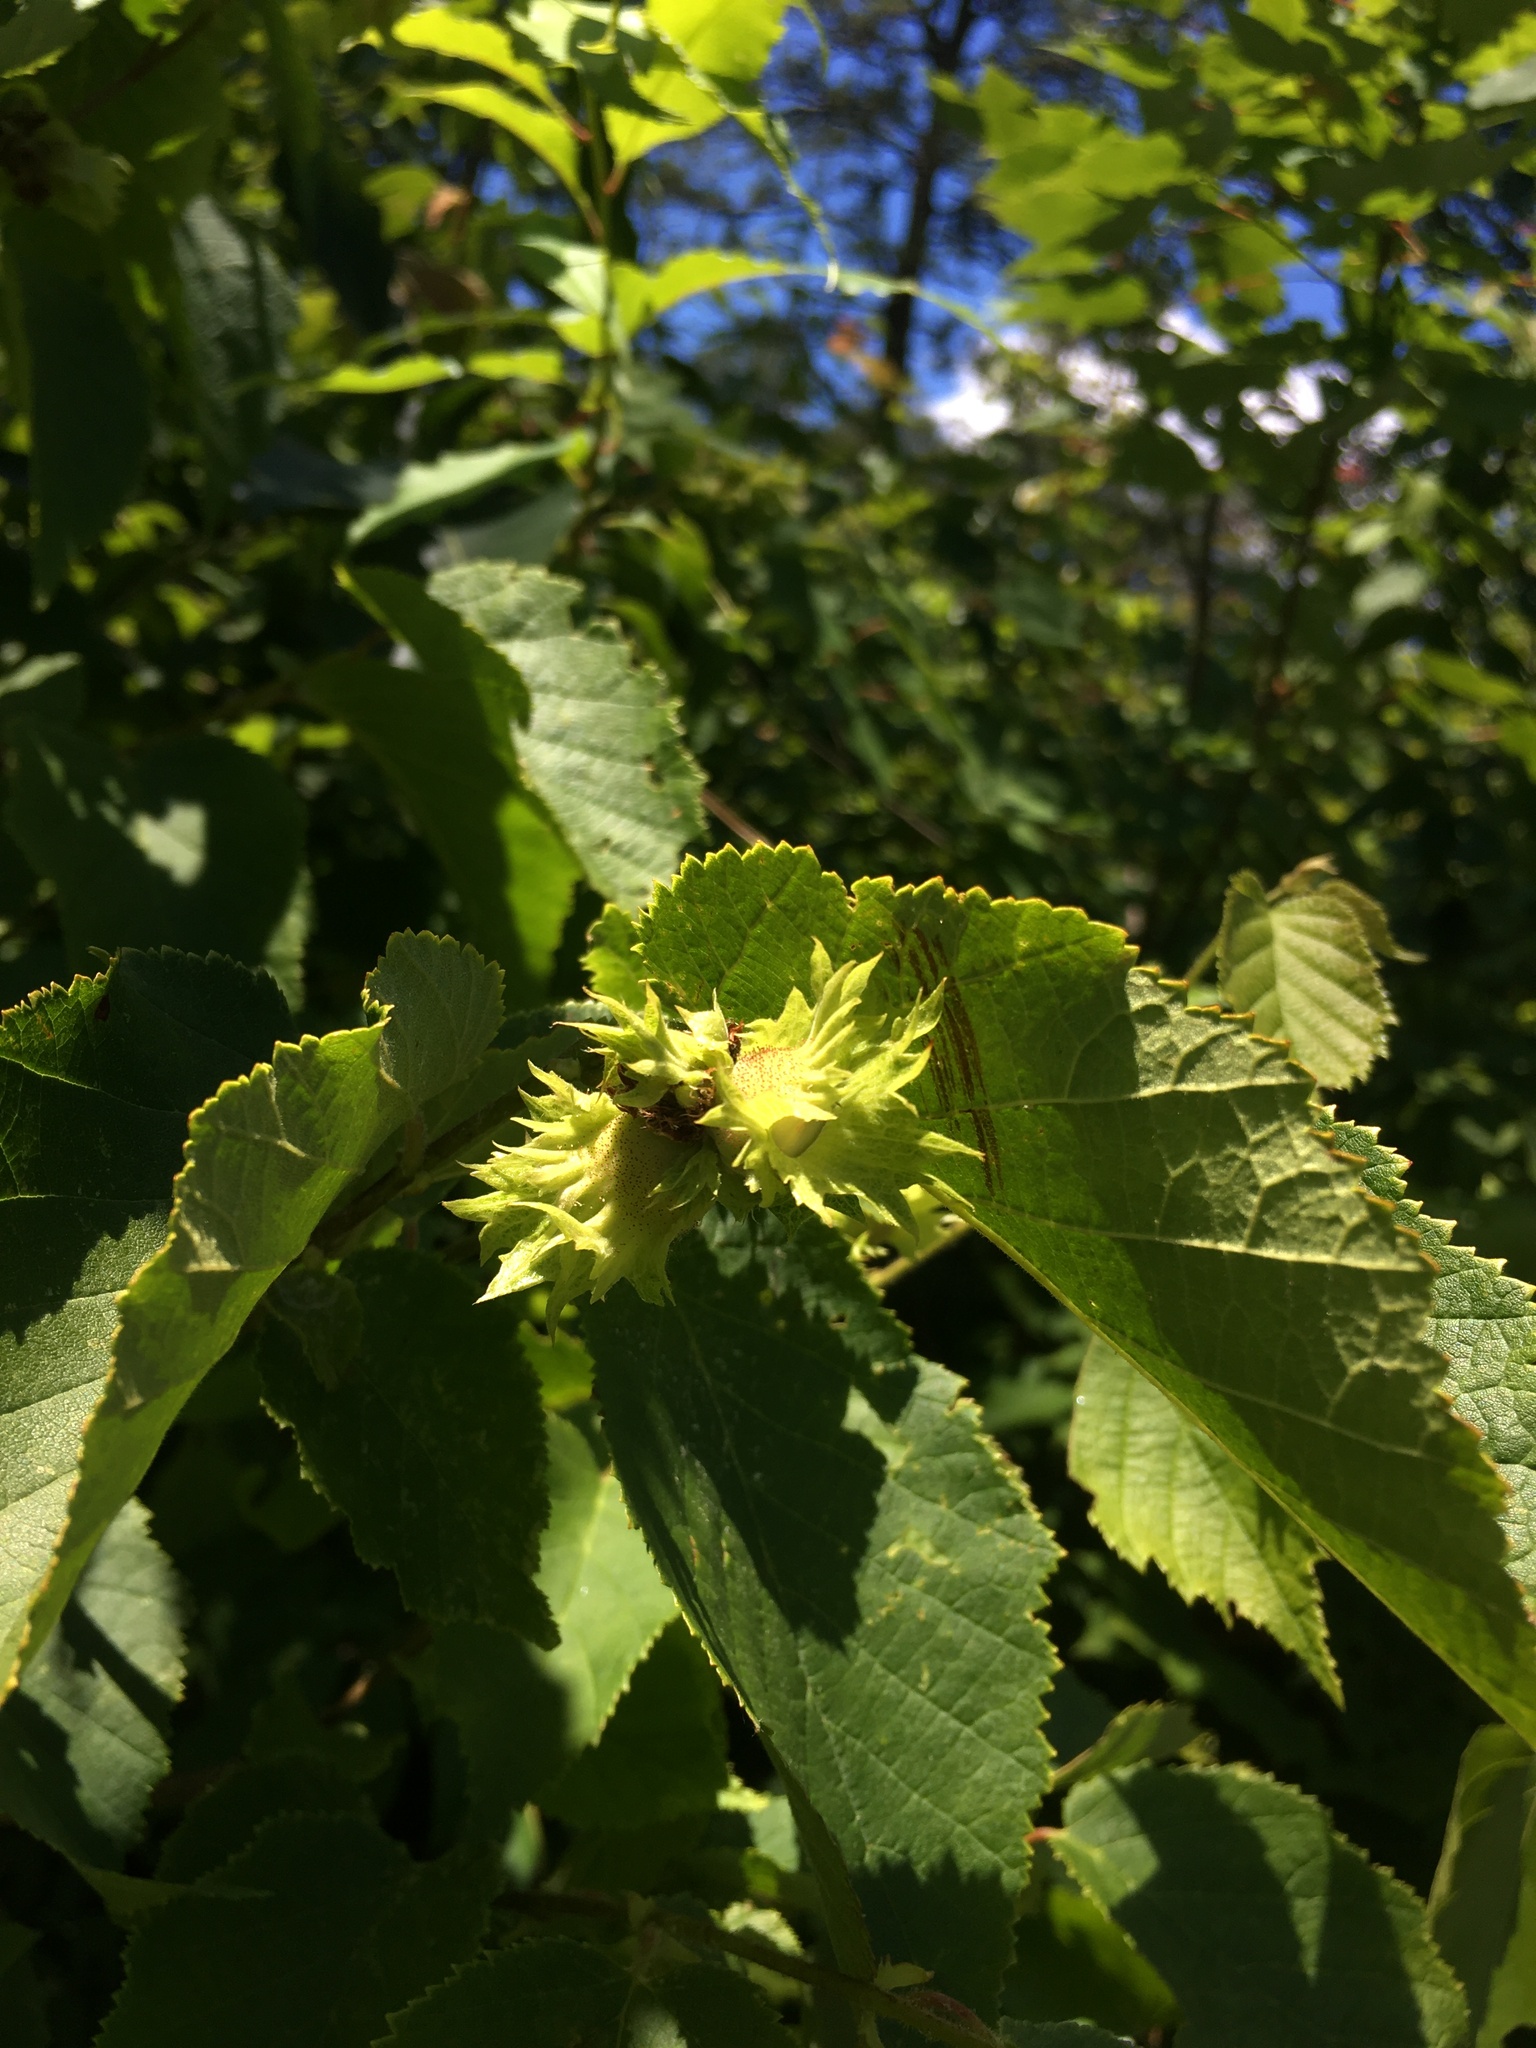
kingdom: Plantae
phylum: Tracheophyta
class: Magnoliopsida
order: Fagales
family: Betulaceae
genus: Corylus
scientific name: Corylus americana
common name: American hazel
